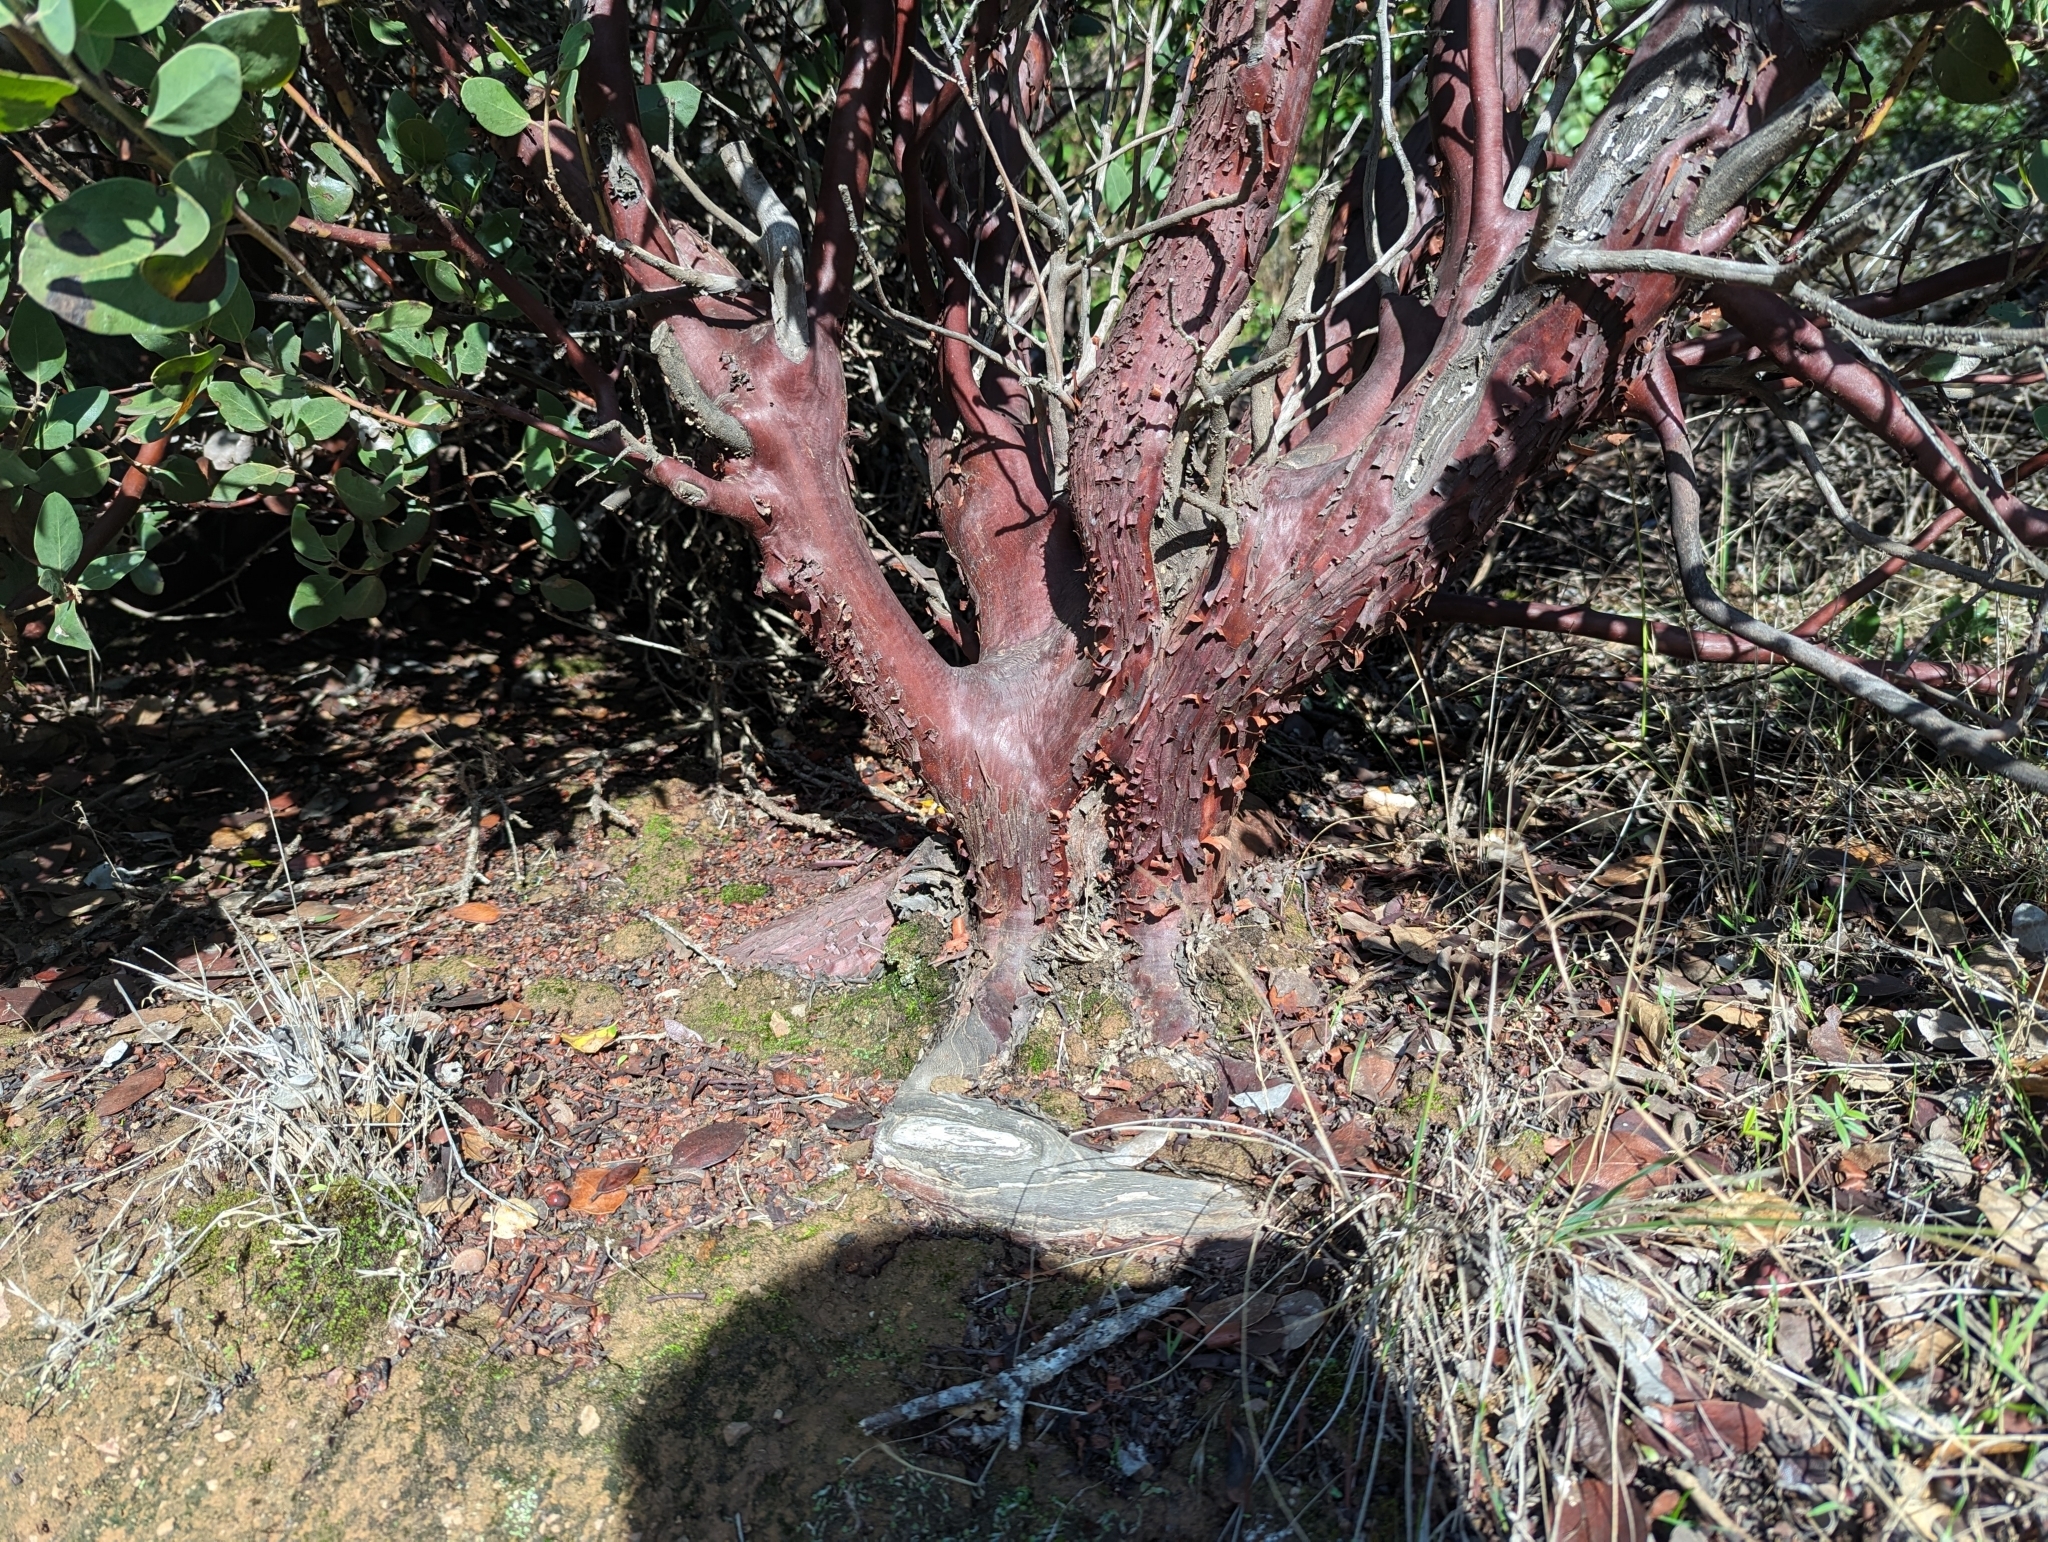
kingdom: Plantae
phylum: Tracheophyta
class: Magnoliopsida
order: Ericales
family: Ericaceae
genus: Arctostaphylos
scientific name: Arctostaphylos manzanita
